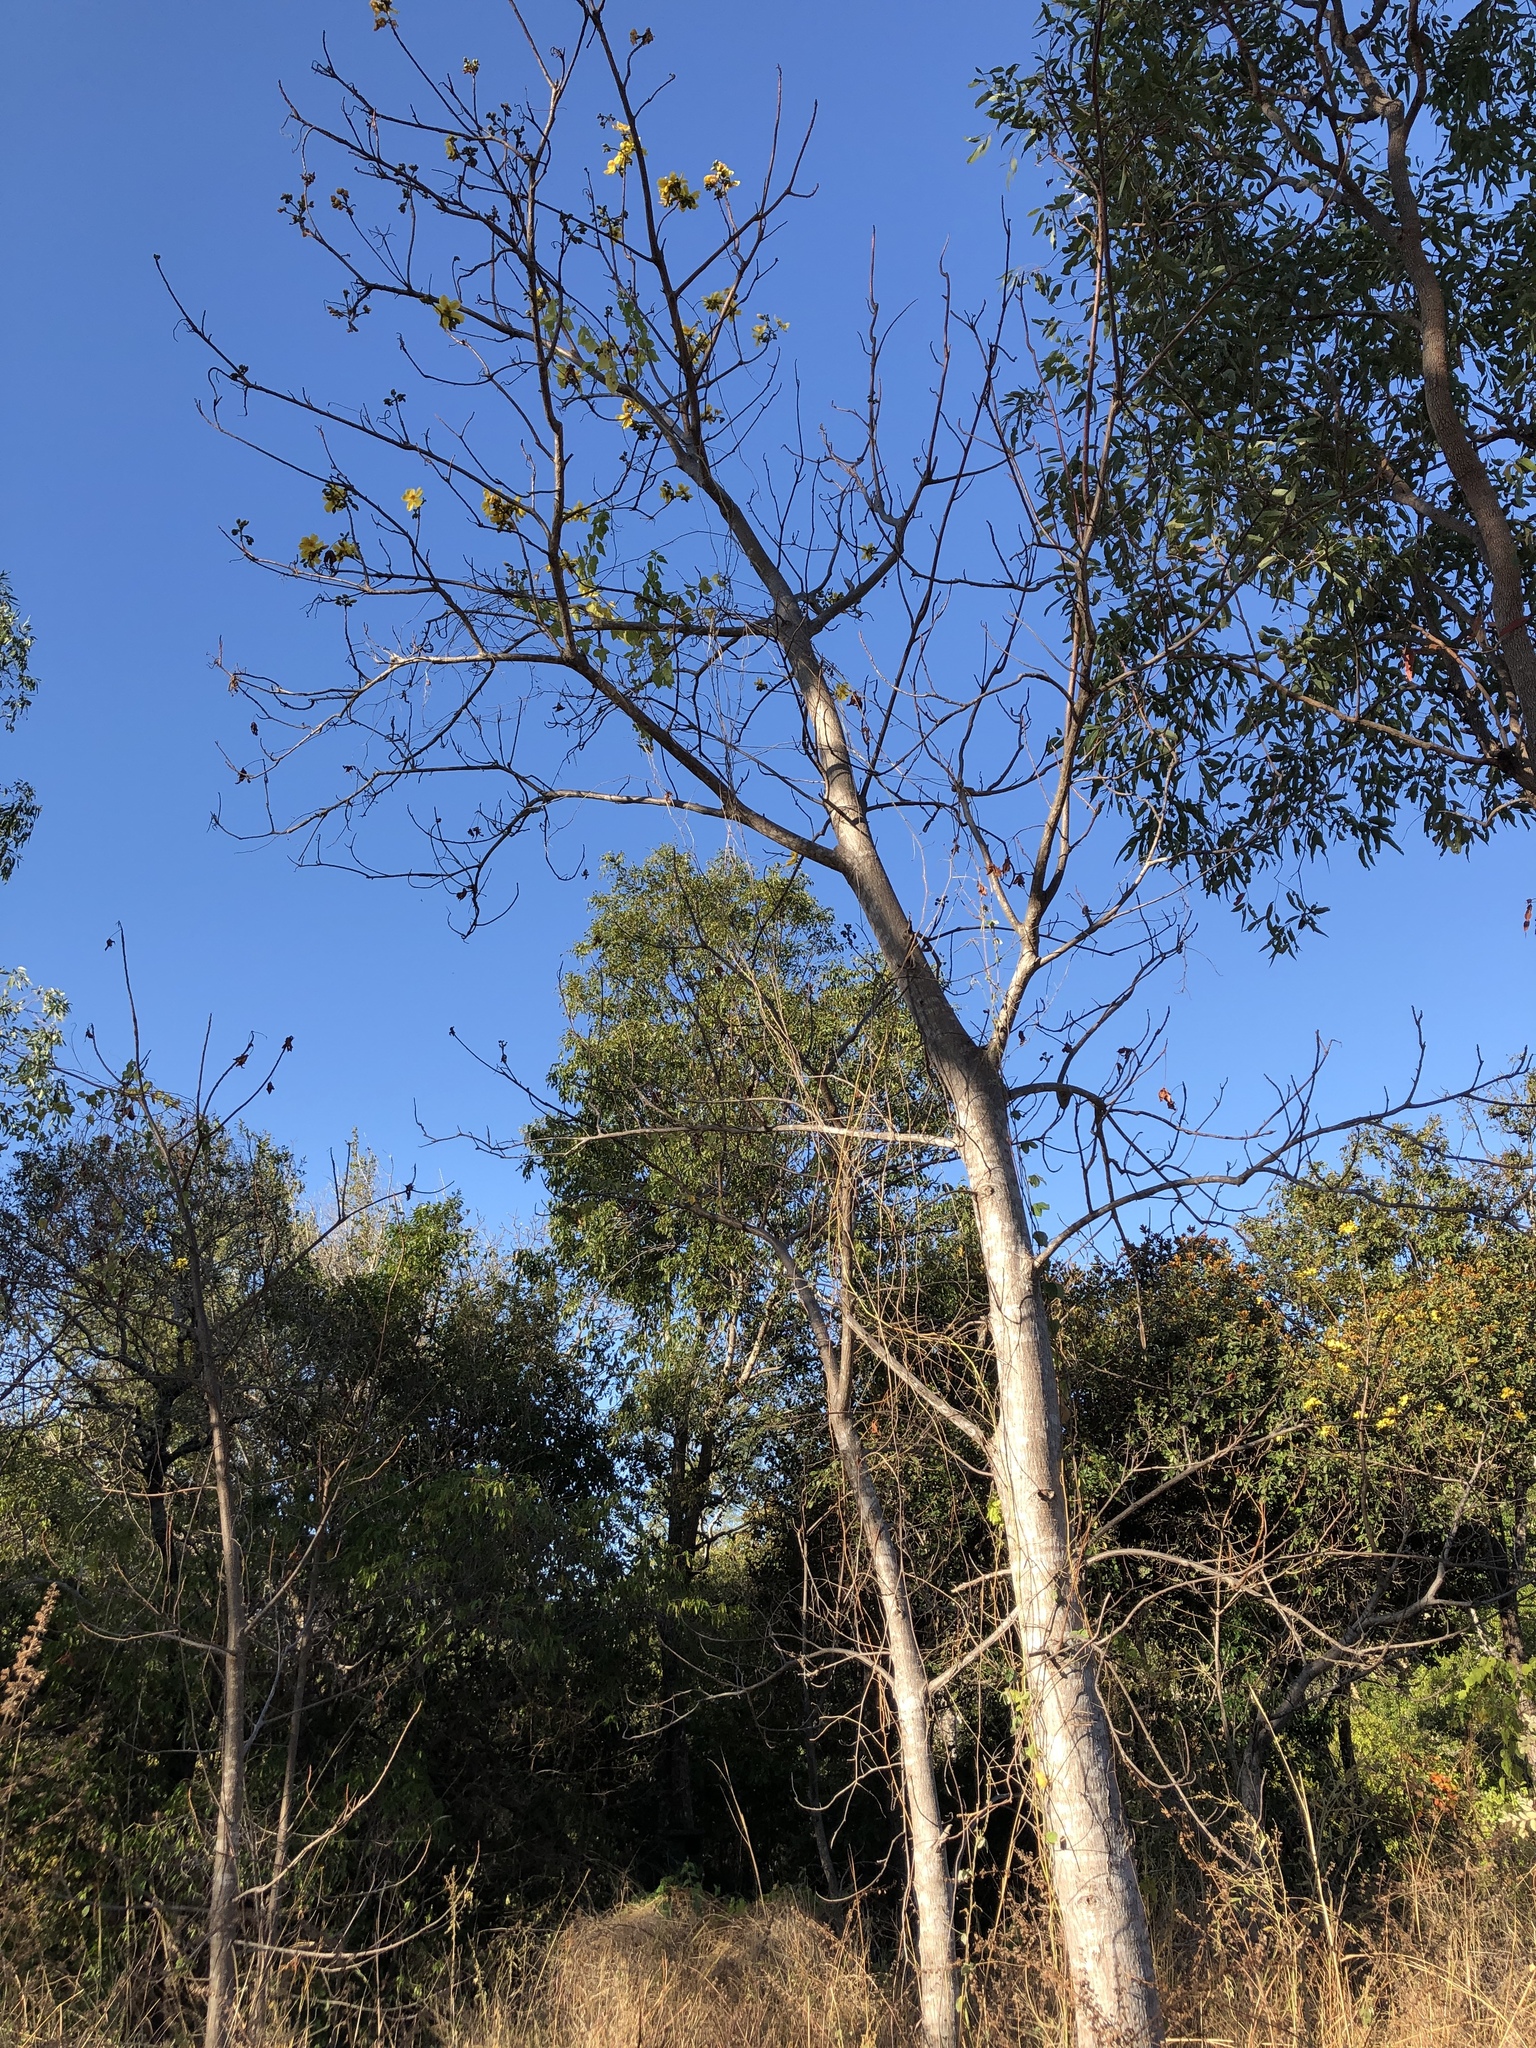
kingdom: Plantae
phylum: Tracheophyta
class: Magnoliopsida
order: Malvales
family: Cochlospermaceae
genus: Cochlospermum
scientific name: Cochlospermum gillivraei
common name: Cottontree
